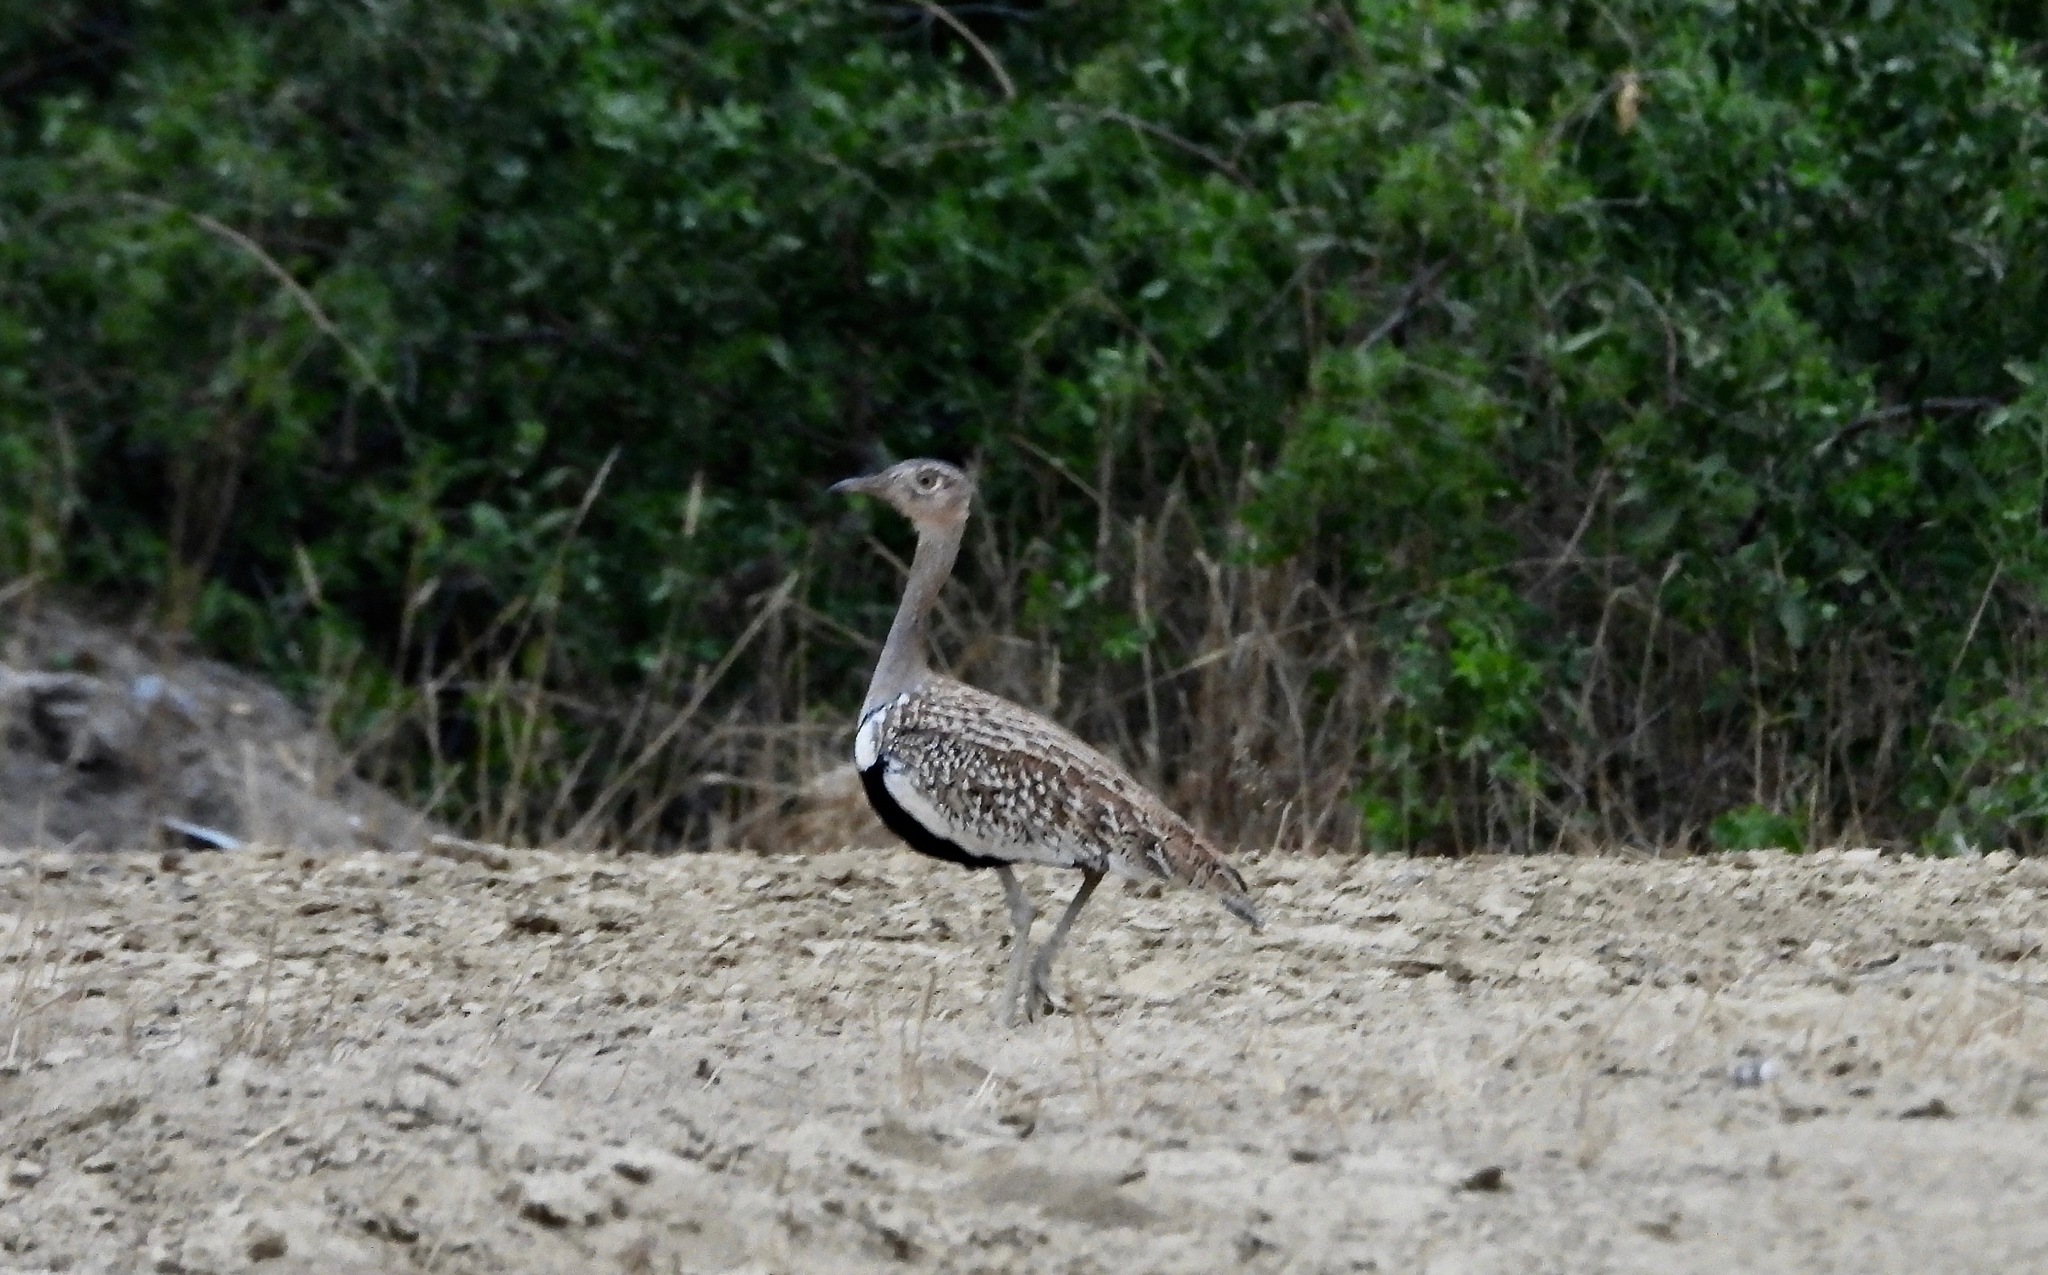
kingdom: Animalia
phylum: Chordata
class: Aves
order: Otidiformes
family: Otididae
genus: Lophotis
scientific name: Lophotis ruficrista
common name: Red-crested korhaan
